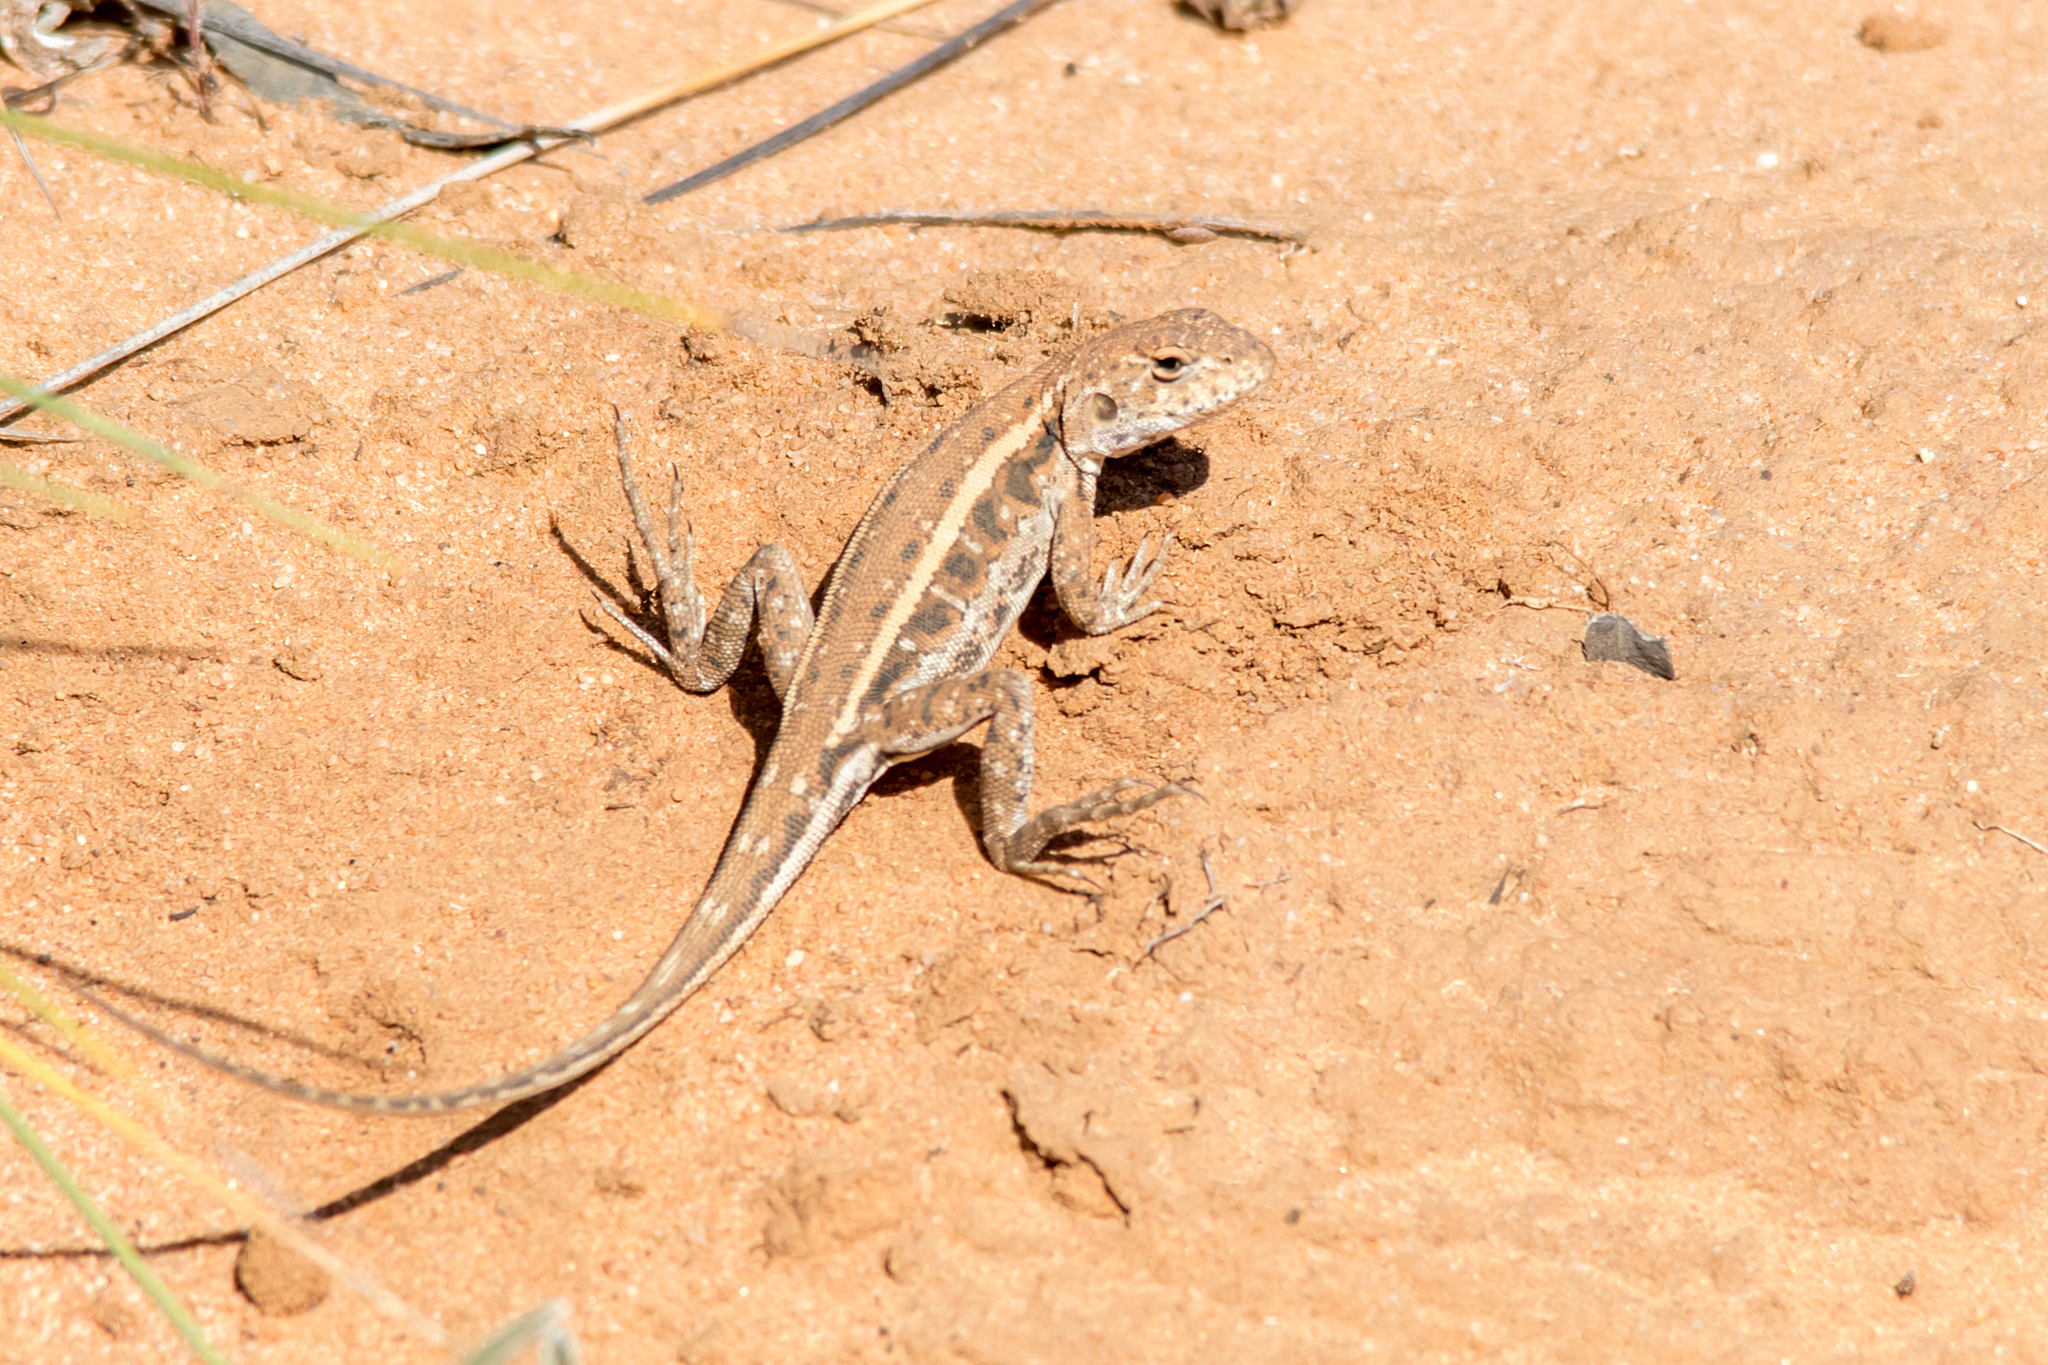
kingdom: Animalia
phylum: Chordata
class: Squamata
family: Agamidae
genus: Ctenophorus
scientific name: Ctenophorus
